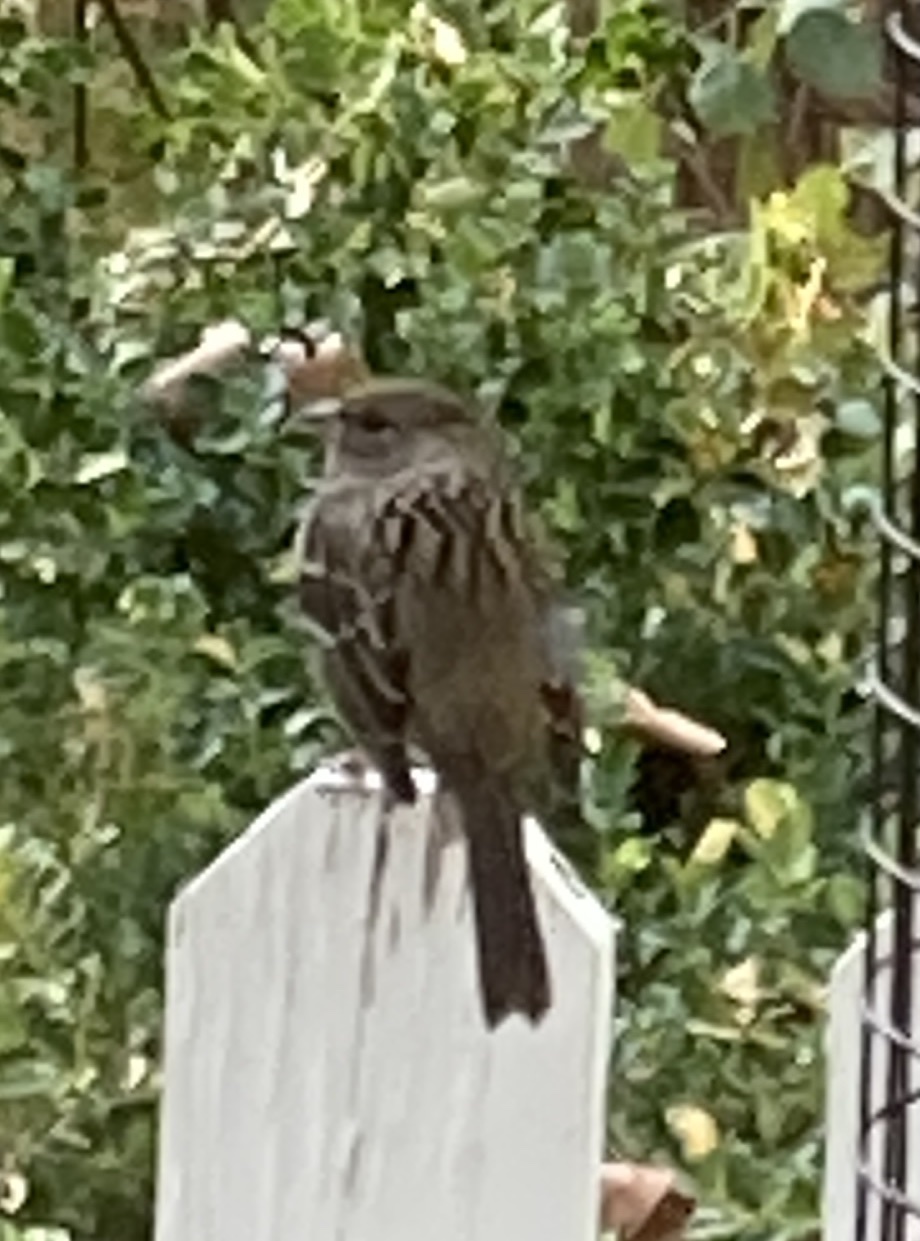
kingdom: Animalia
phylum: Chordata
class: Aves
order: Passeriformes
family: Passerellidae
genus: Zonotrichia
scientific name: Zonotrichia atricapilla
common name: Golden-crowned sparrow
